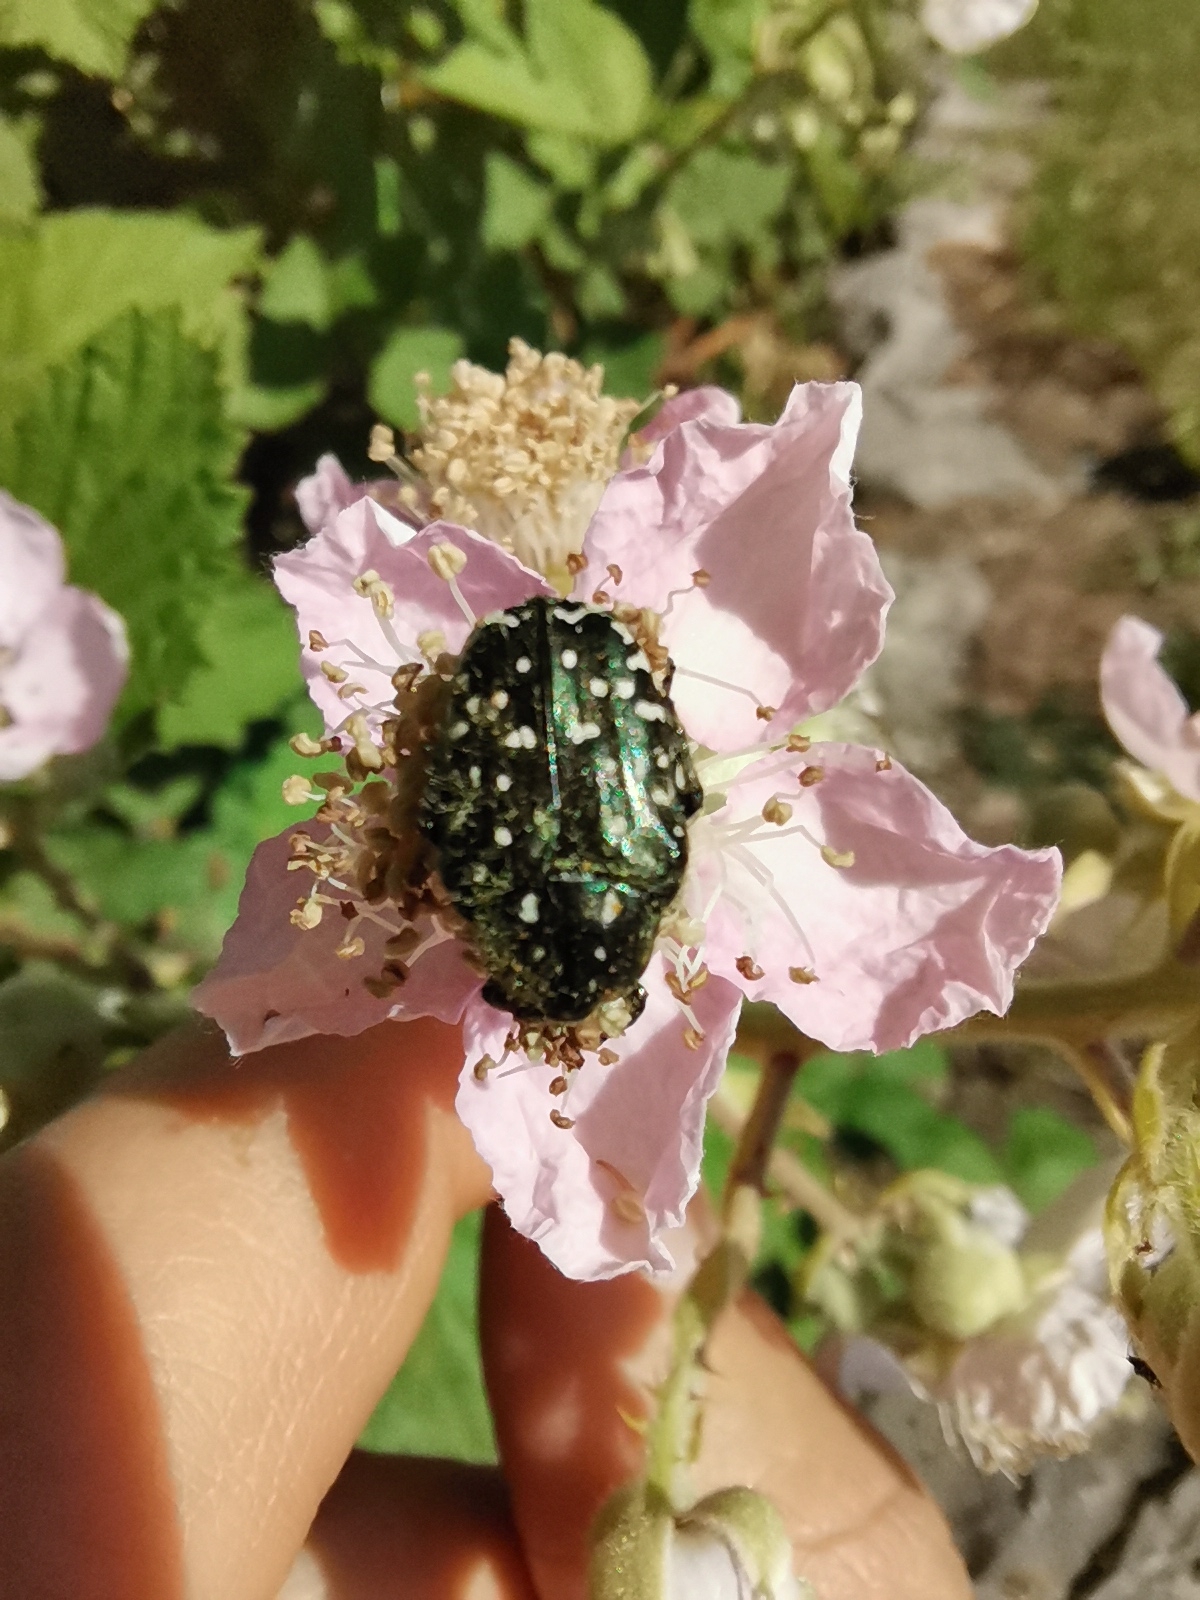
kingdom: Animalia
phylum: Arthropoda
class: Insecta
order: Coleoptera
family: Scarabaeidae
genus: Oxythyrea
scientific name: Oxythyrea funesta
